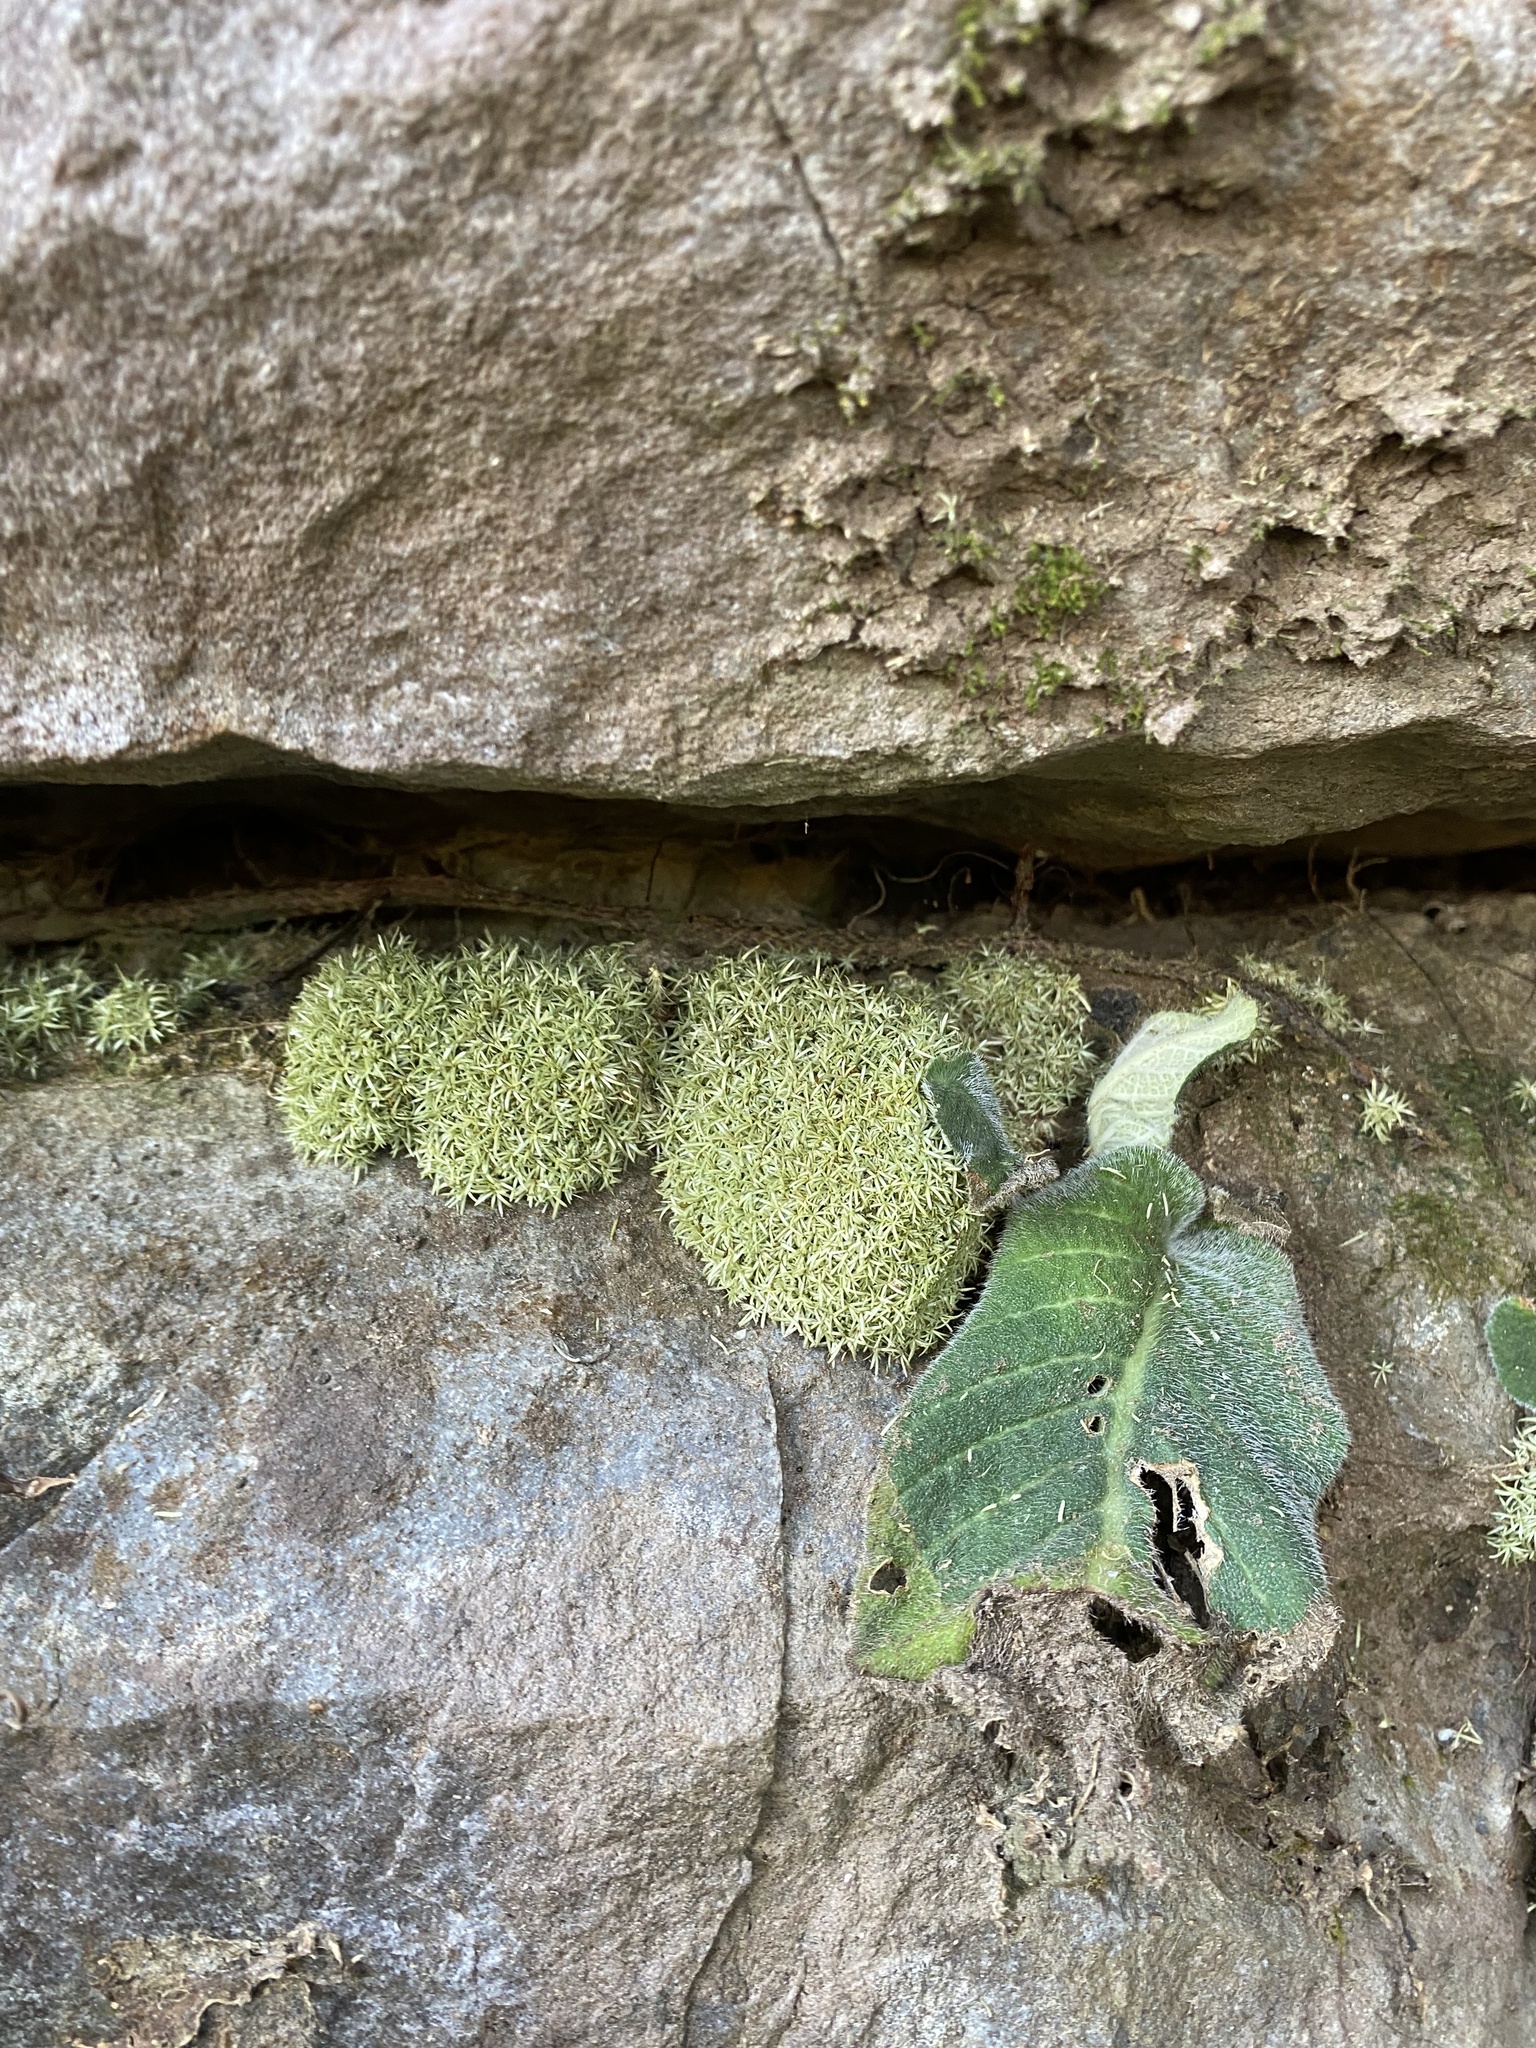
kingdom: Plantae
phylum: Bryophyta
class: Bryopsida
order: Dicranales
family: Octoblepharaceae
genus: Octoblepharum
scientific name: Octoblepharum albidum
